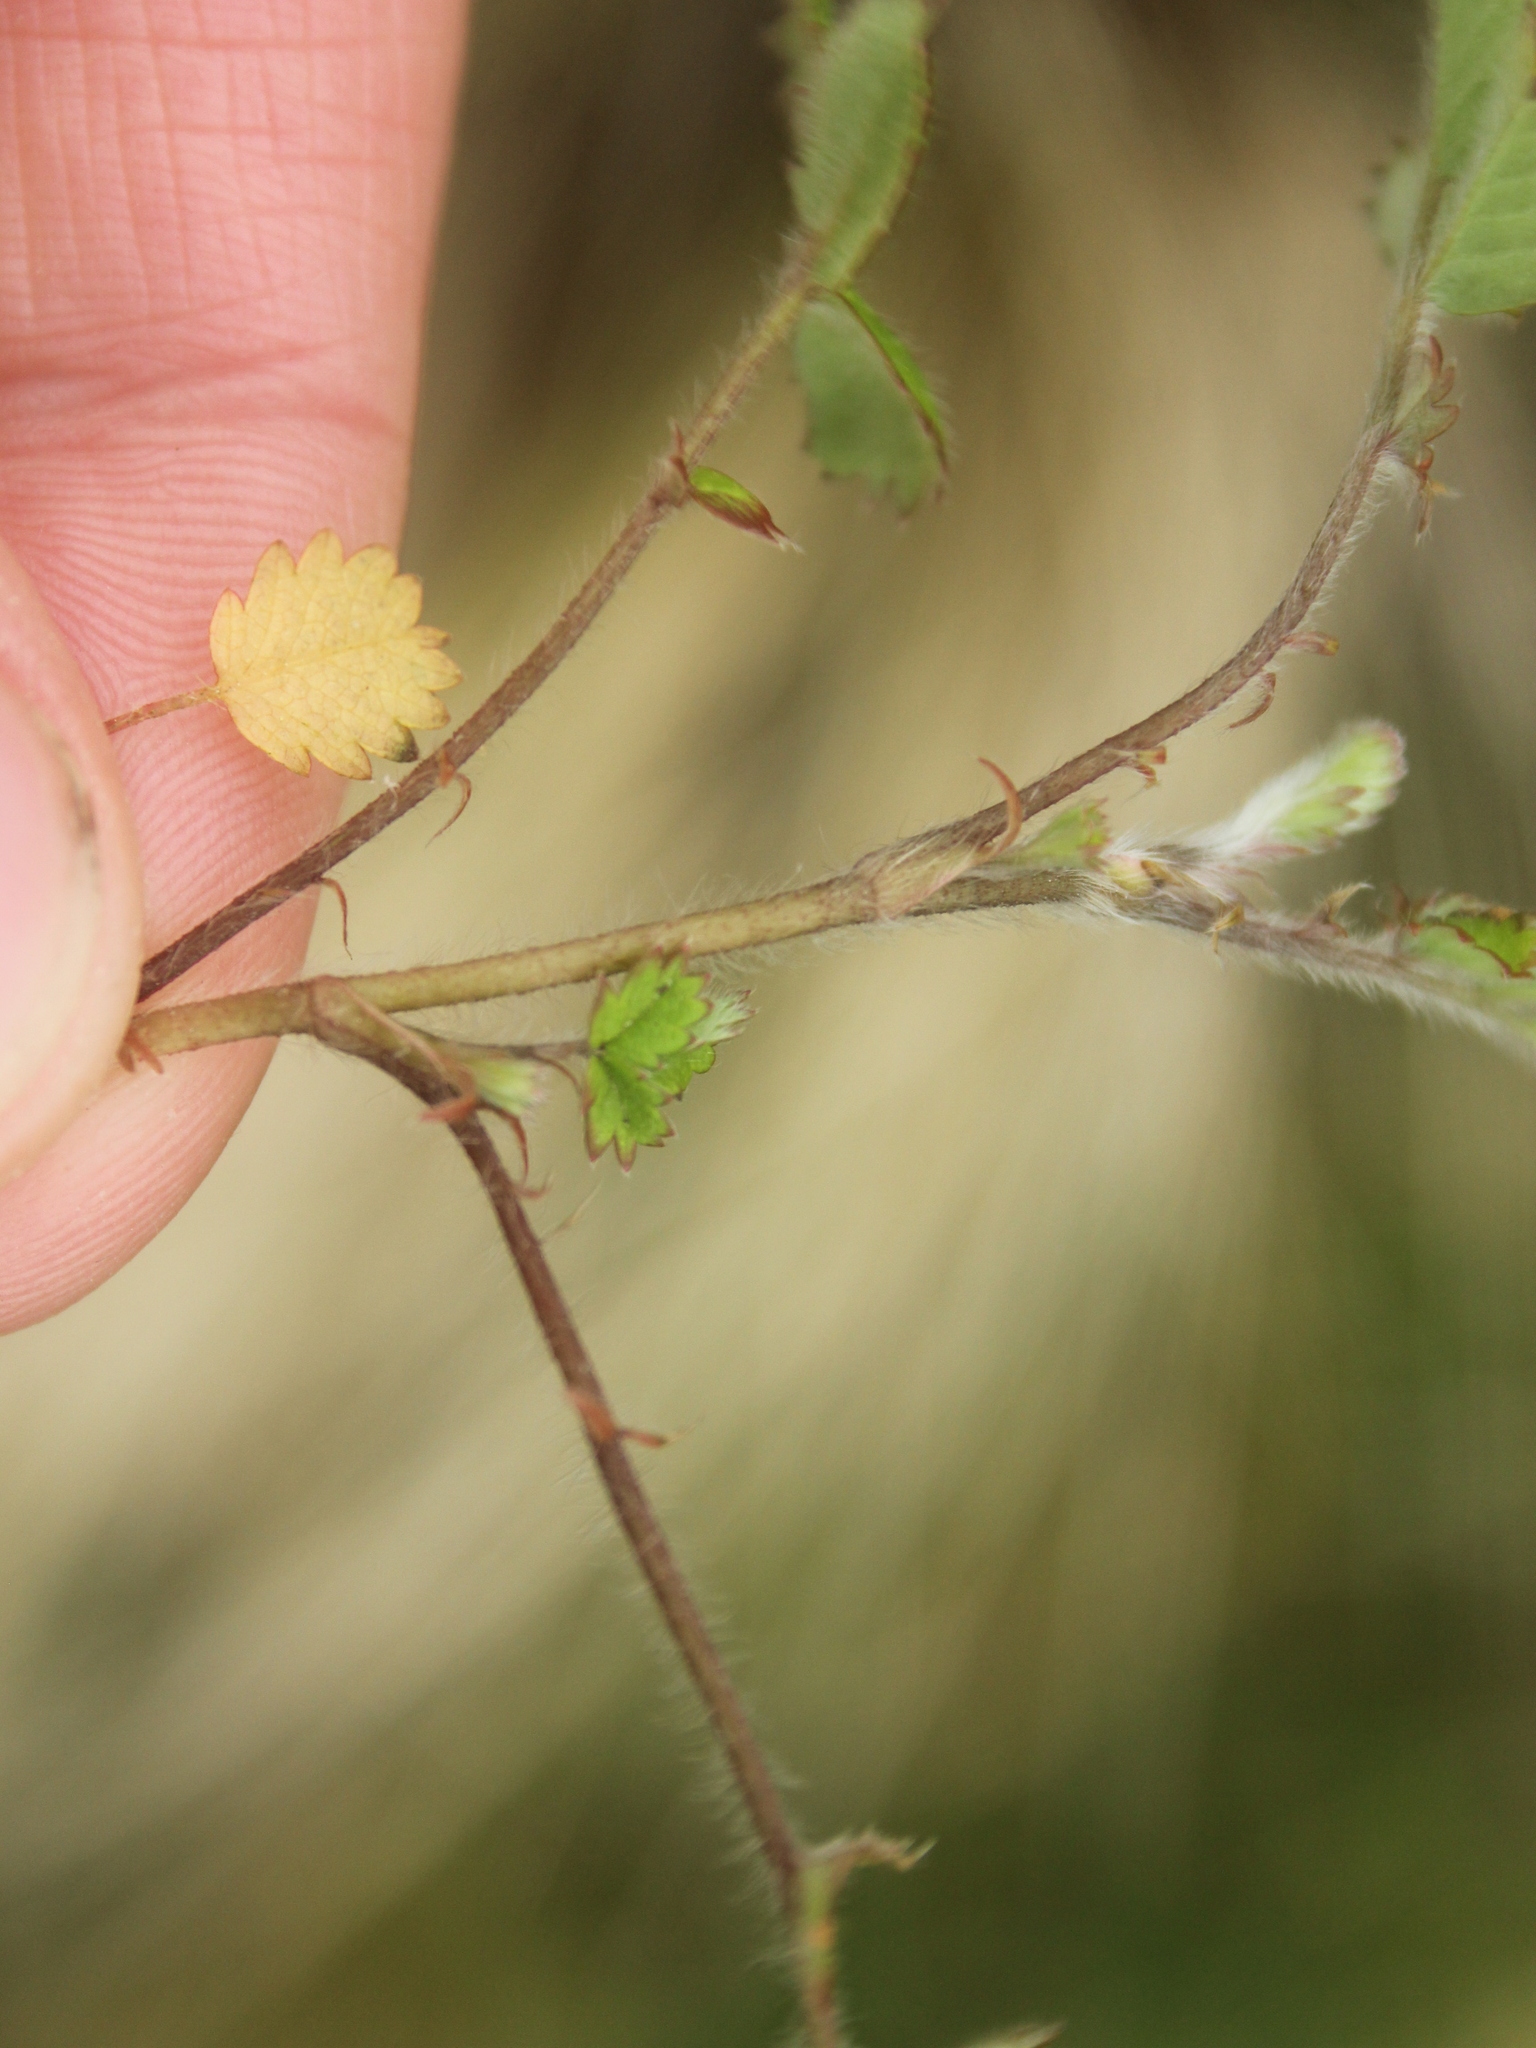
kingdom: Plantae
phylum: Tracheophyta
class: Magnoliopsida
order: Rosales
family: Rosaceae
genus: Acaena
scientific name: Acaena juvenca
